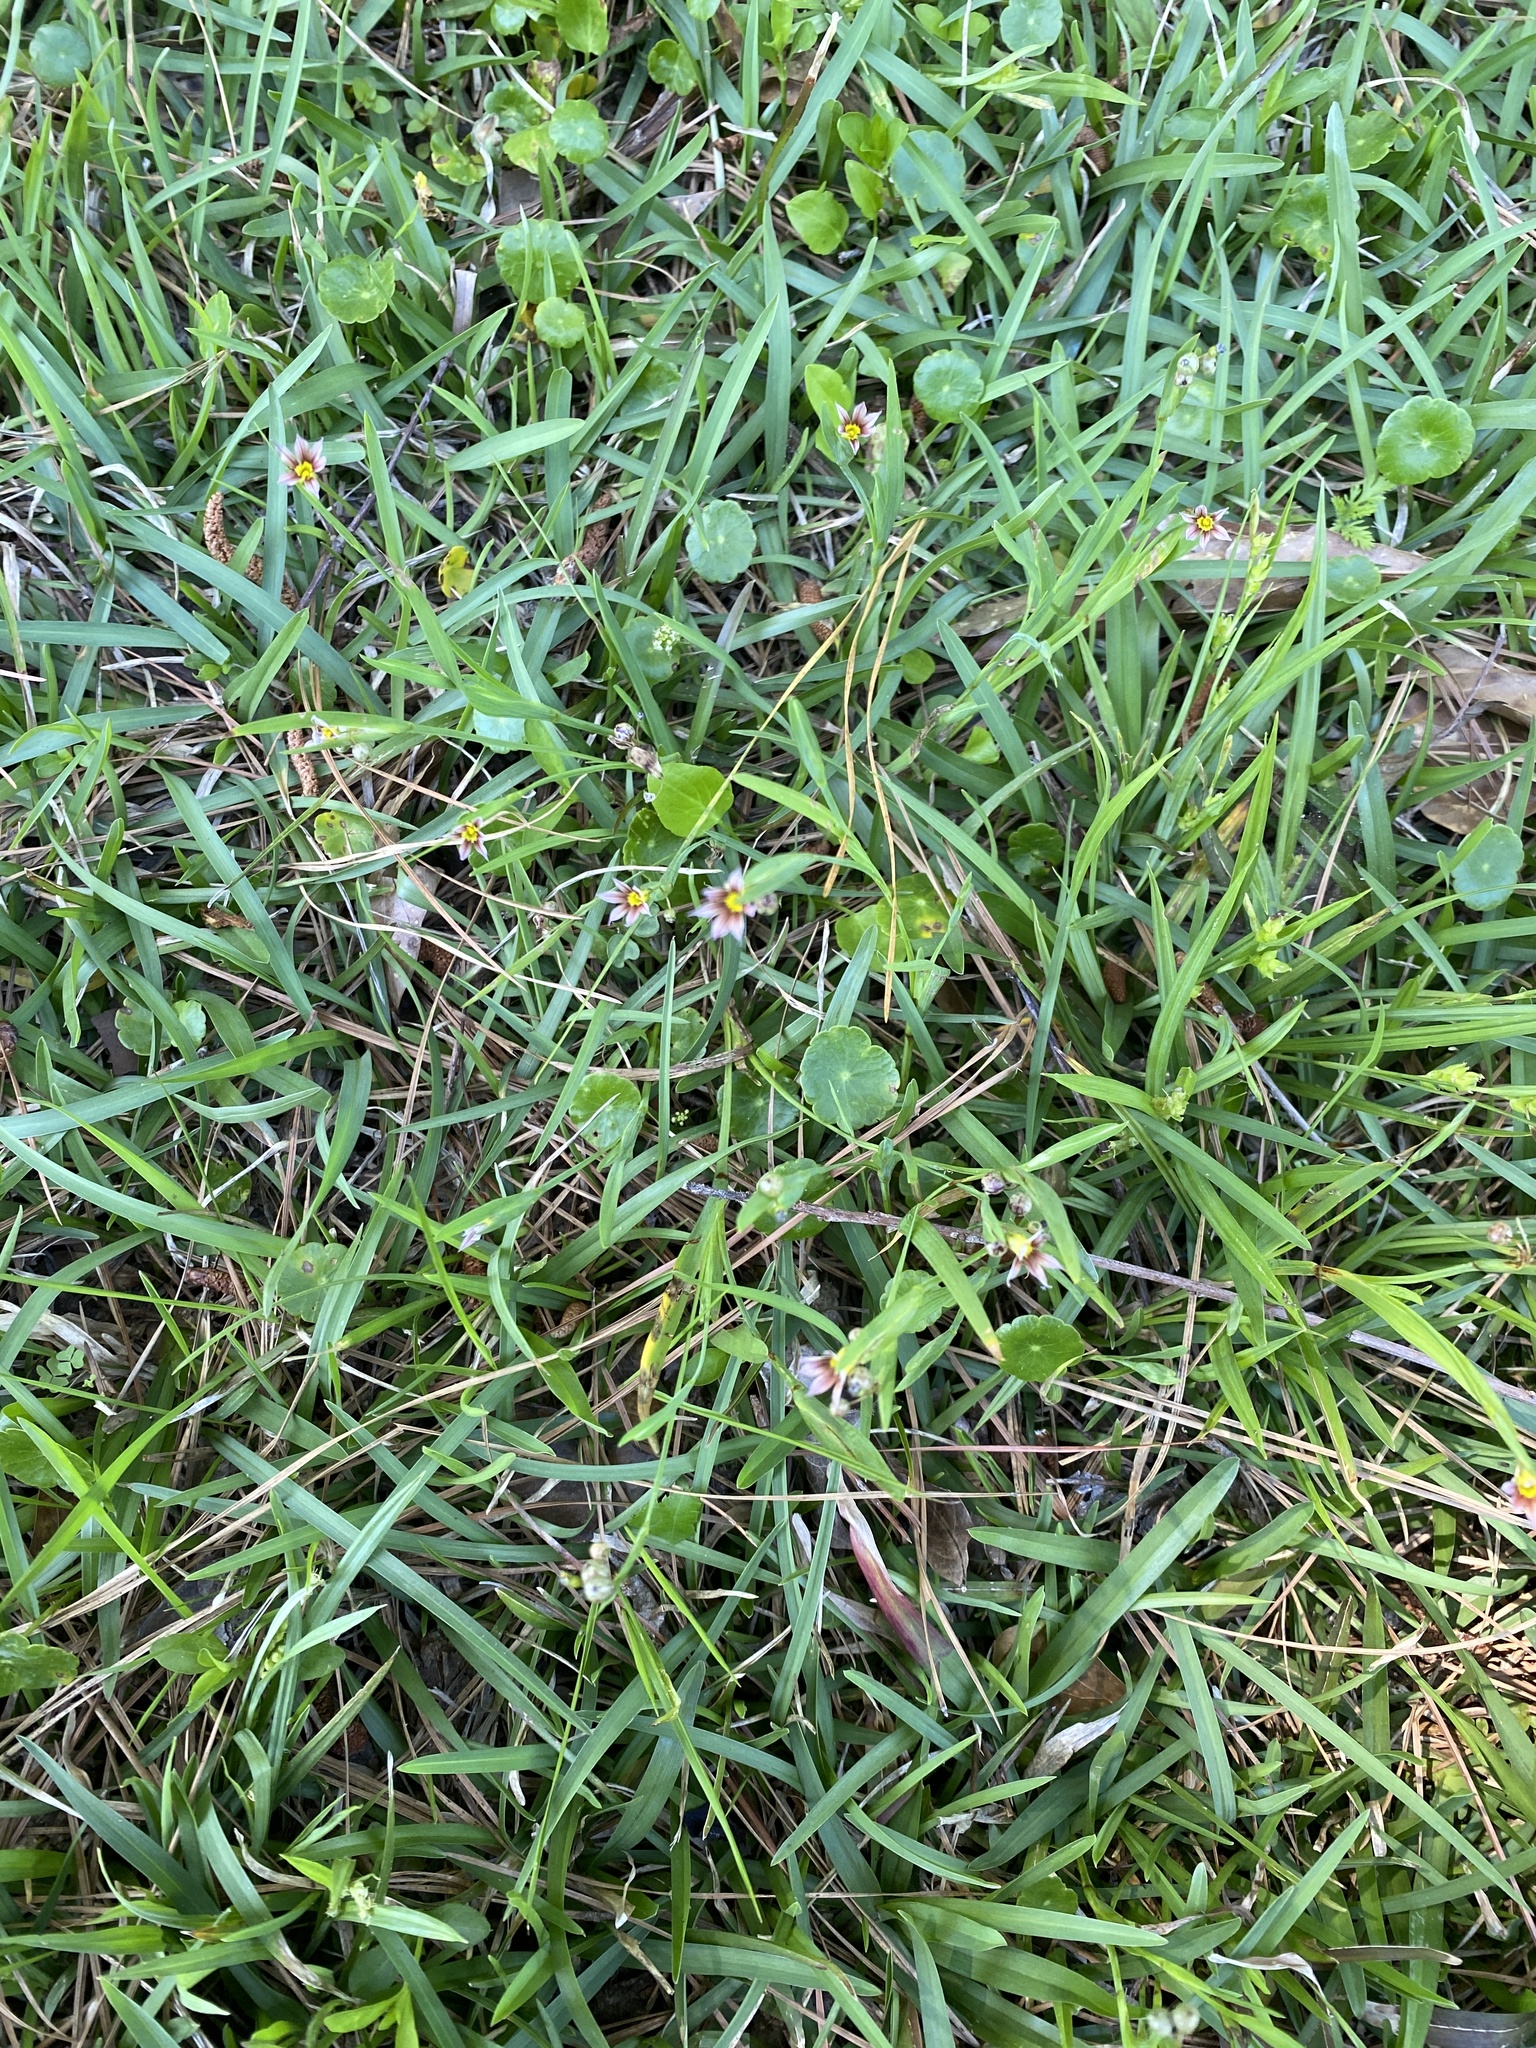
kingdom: Plantae
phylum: Tracheophyta
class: Liliopsida
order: Asparagales
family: Iridaceae
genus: Sisyrinchium
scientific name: Sisyrinchium micranthum
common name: Bermuda pigroot
